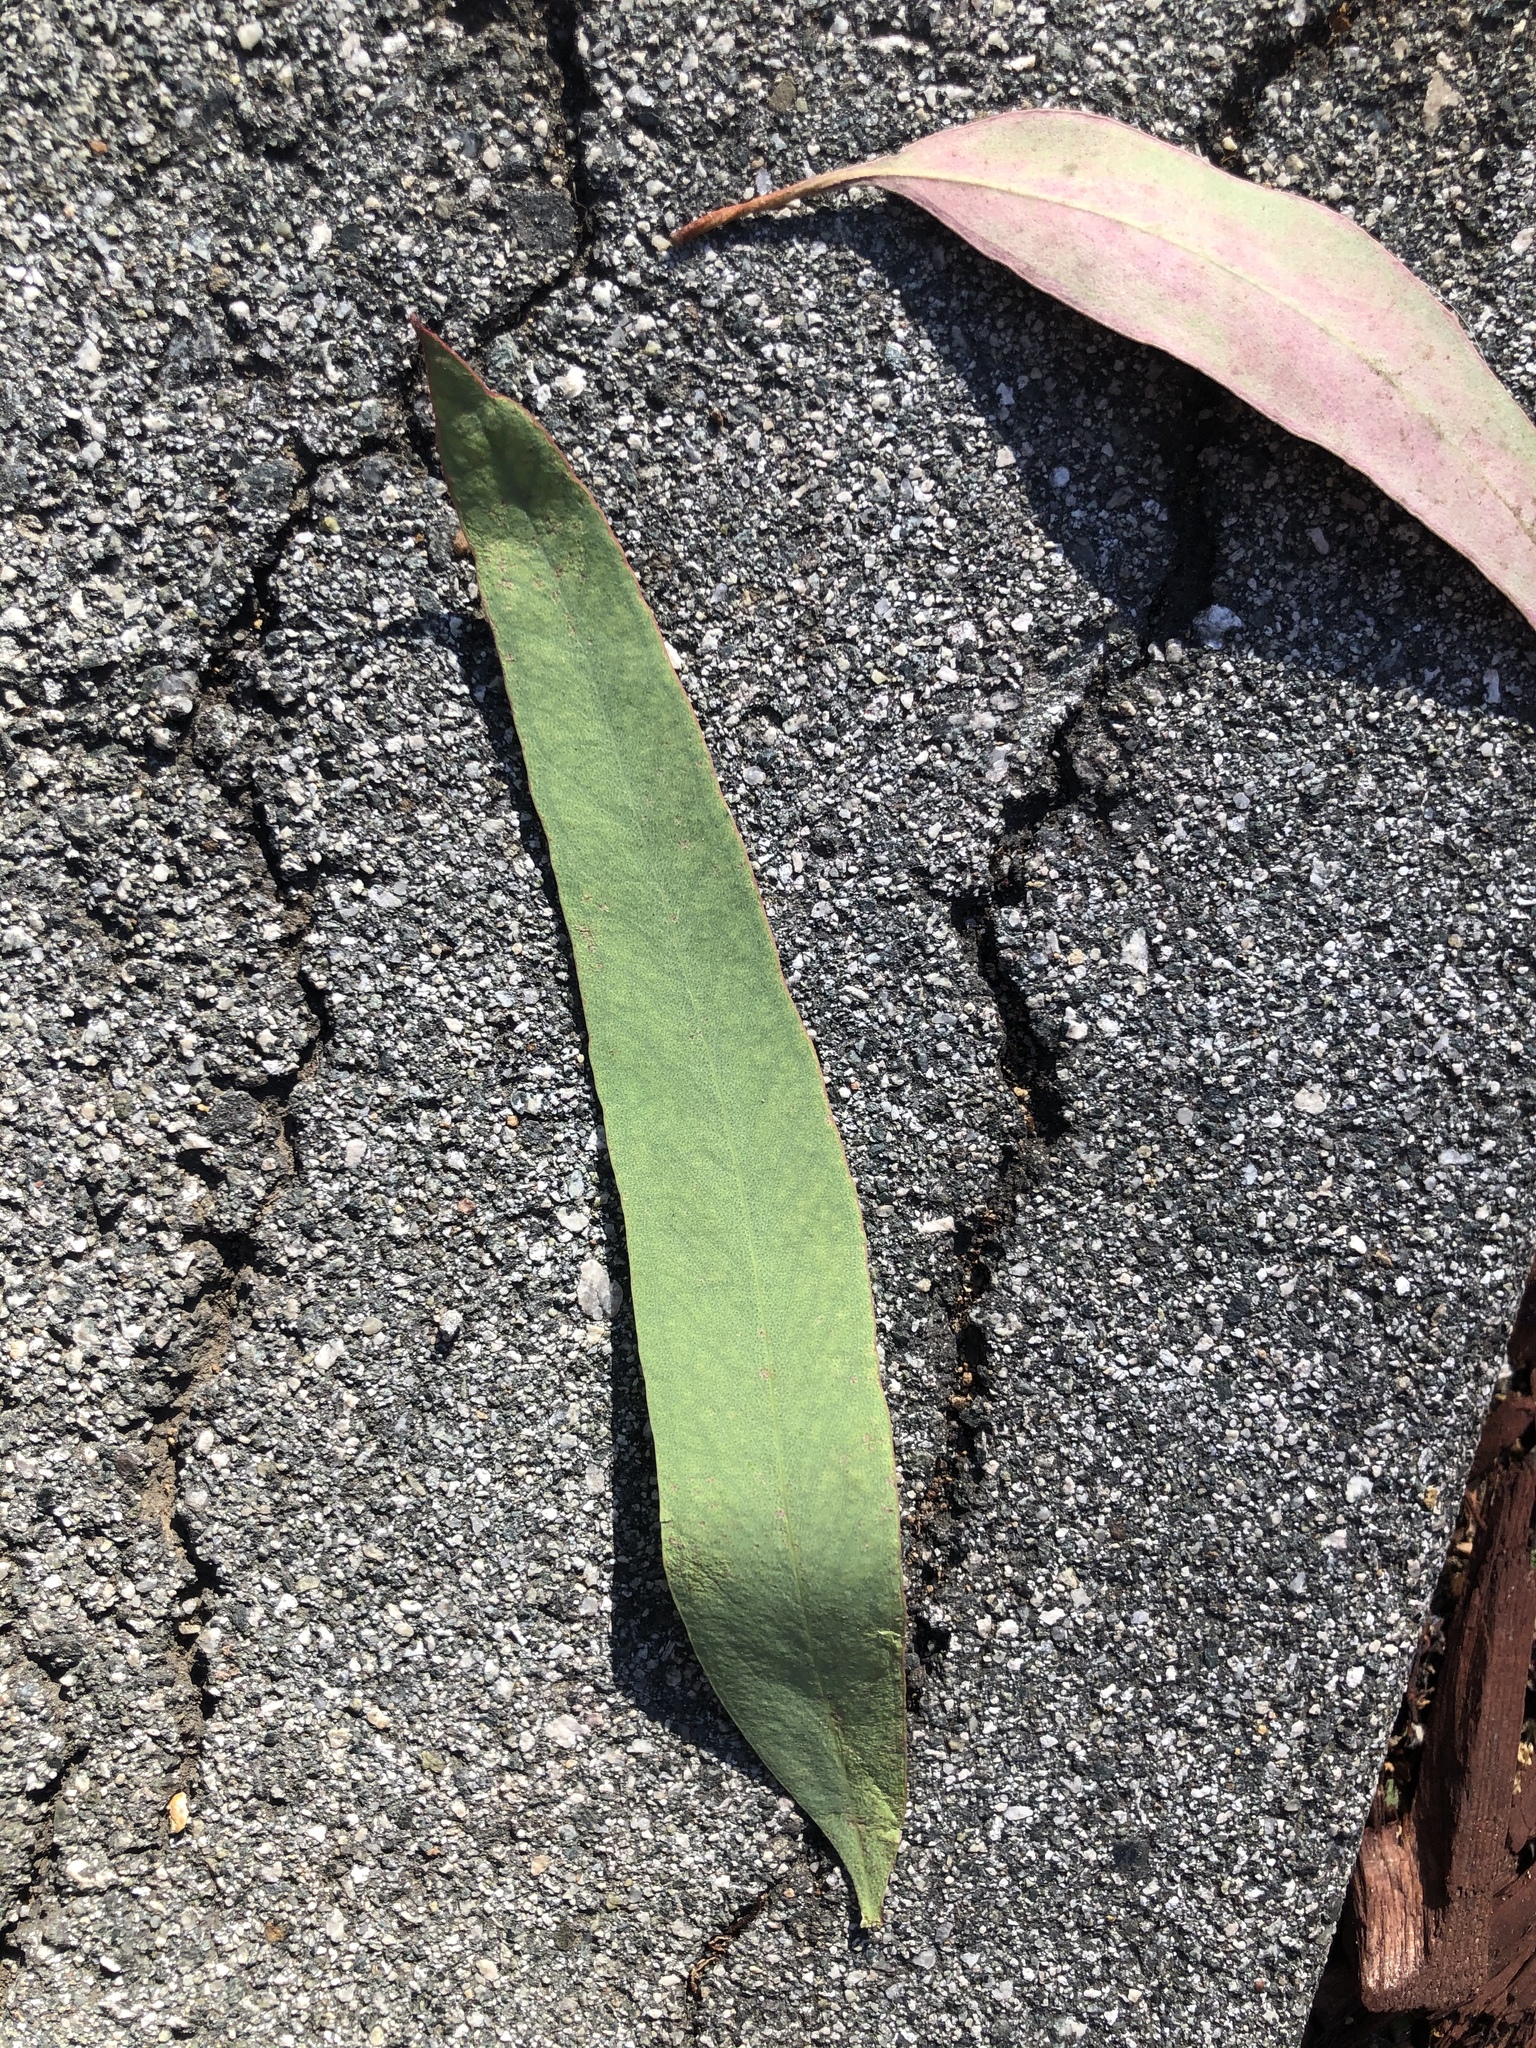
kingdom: Plantae
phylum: Tracheophyta
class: Magnoliopsida
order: Myrtales
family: Myrtaceae
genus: Eucalyptus
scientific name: Eucalyptus sideroxylon
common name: Red ironbark
